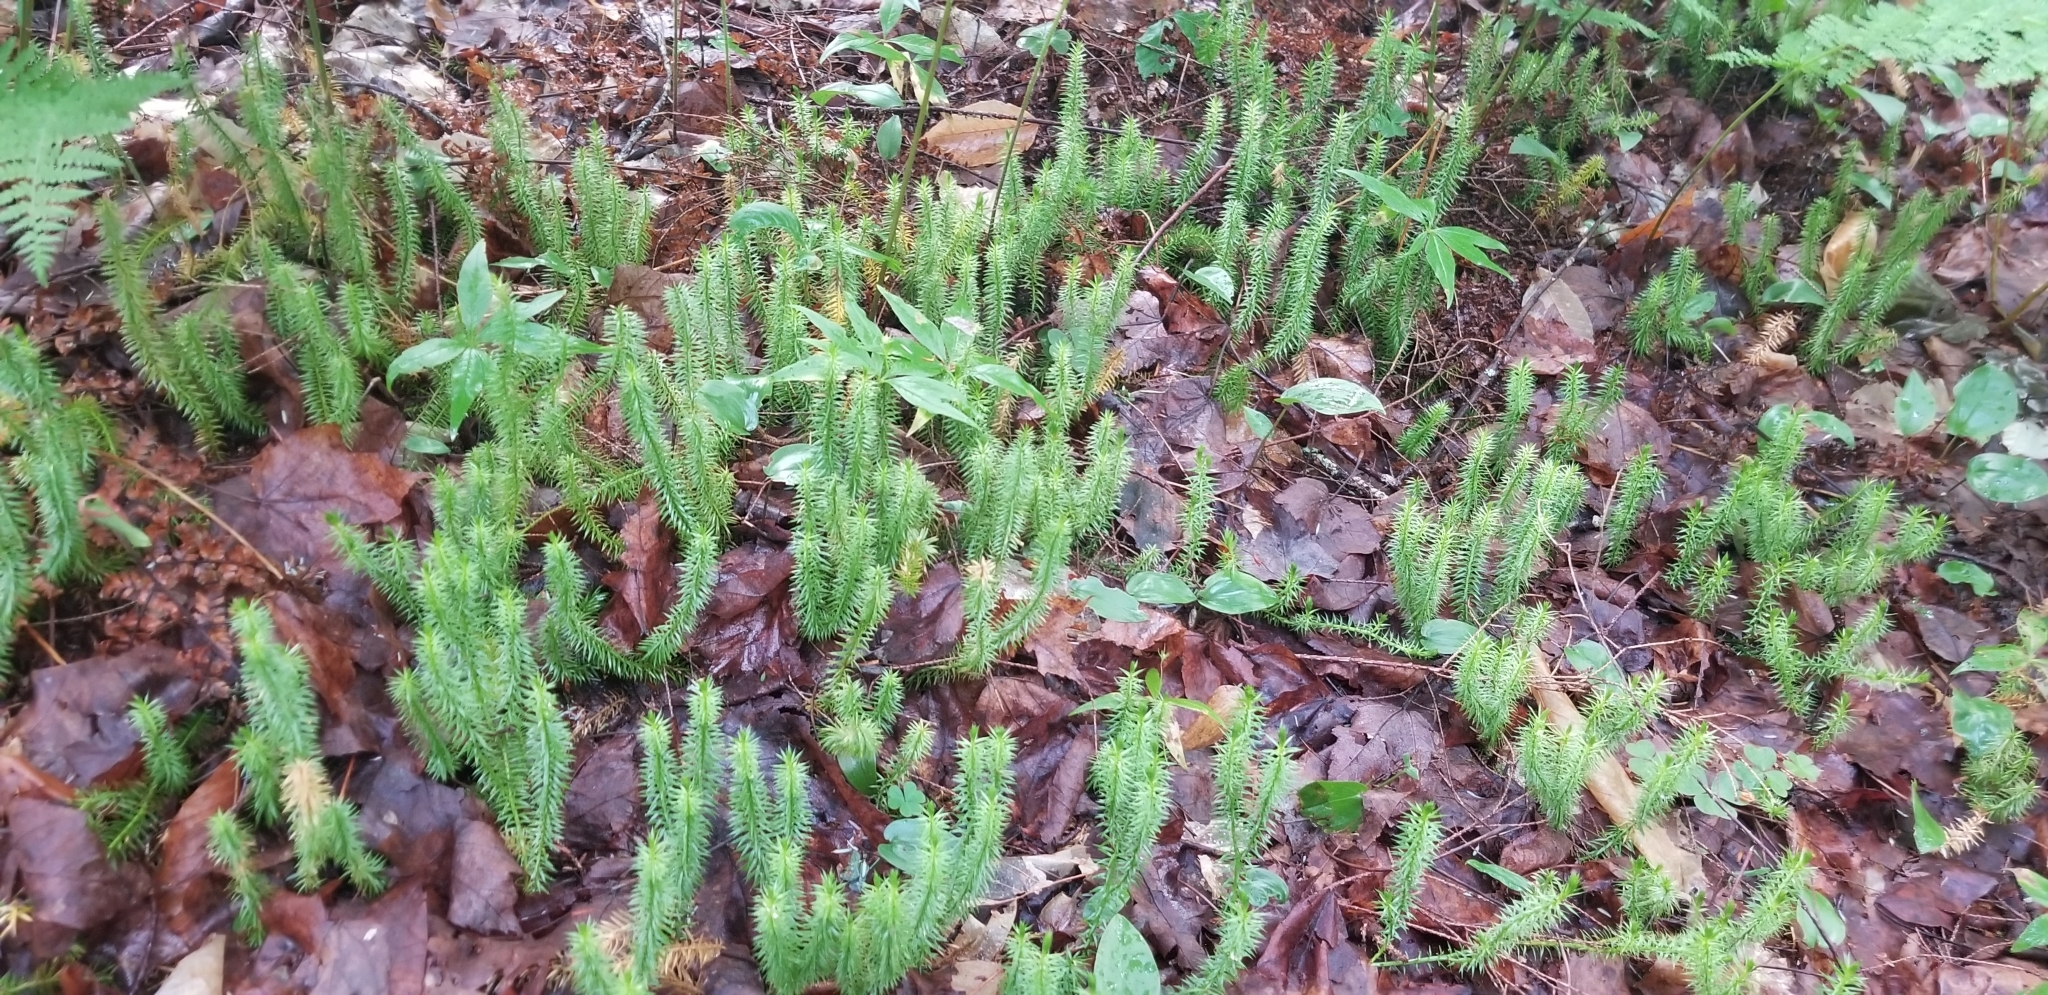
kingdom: Plantae
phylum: Tracheophyta
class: Lycopodiopsida
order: Lycopodiales
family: Lycopodiaceae
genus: Spinulum
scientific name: Spinulum annotinum
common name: Interrupted club-moss
